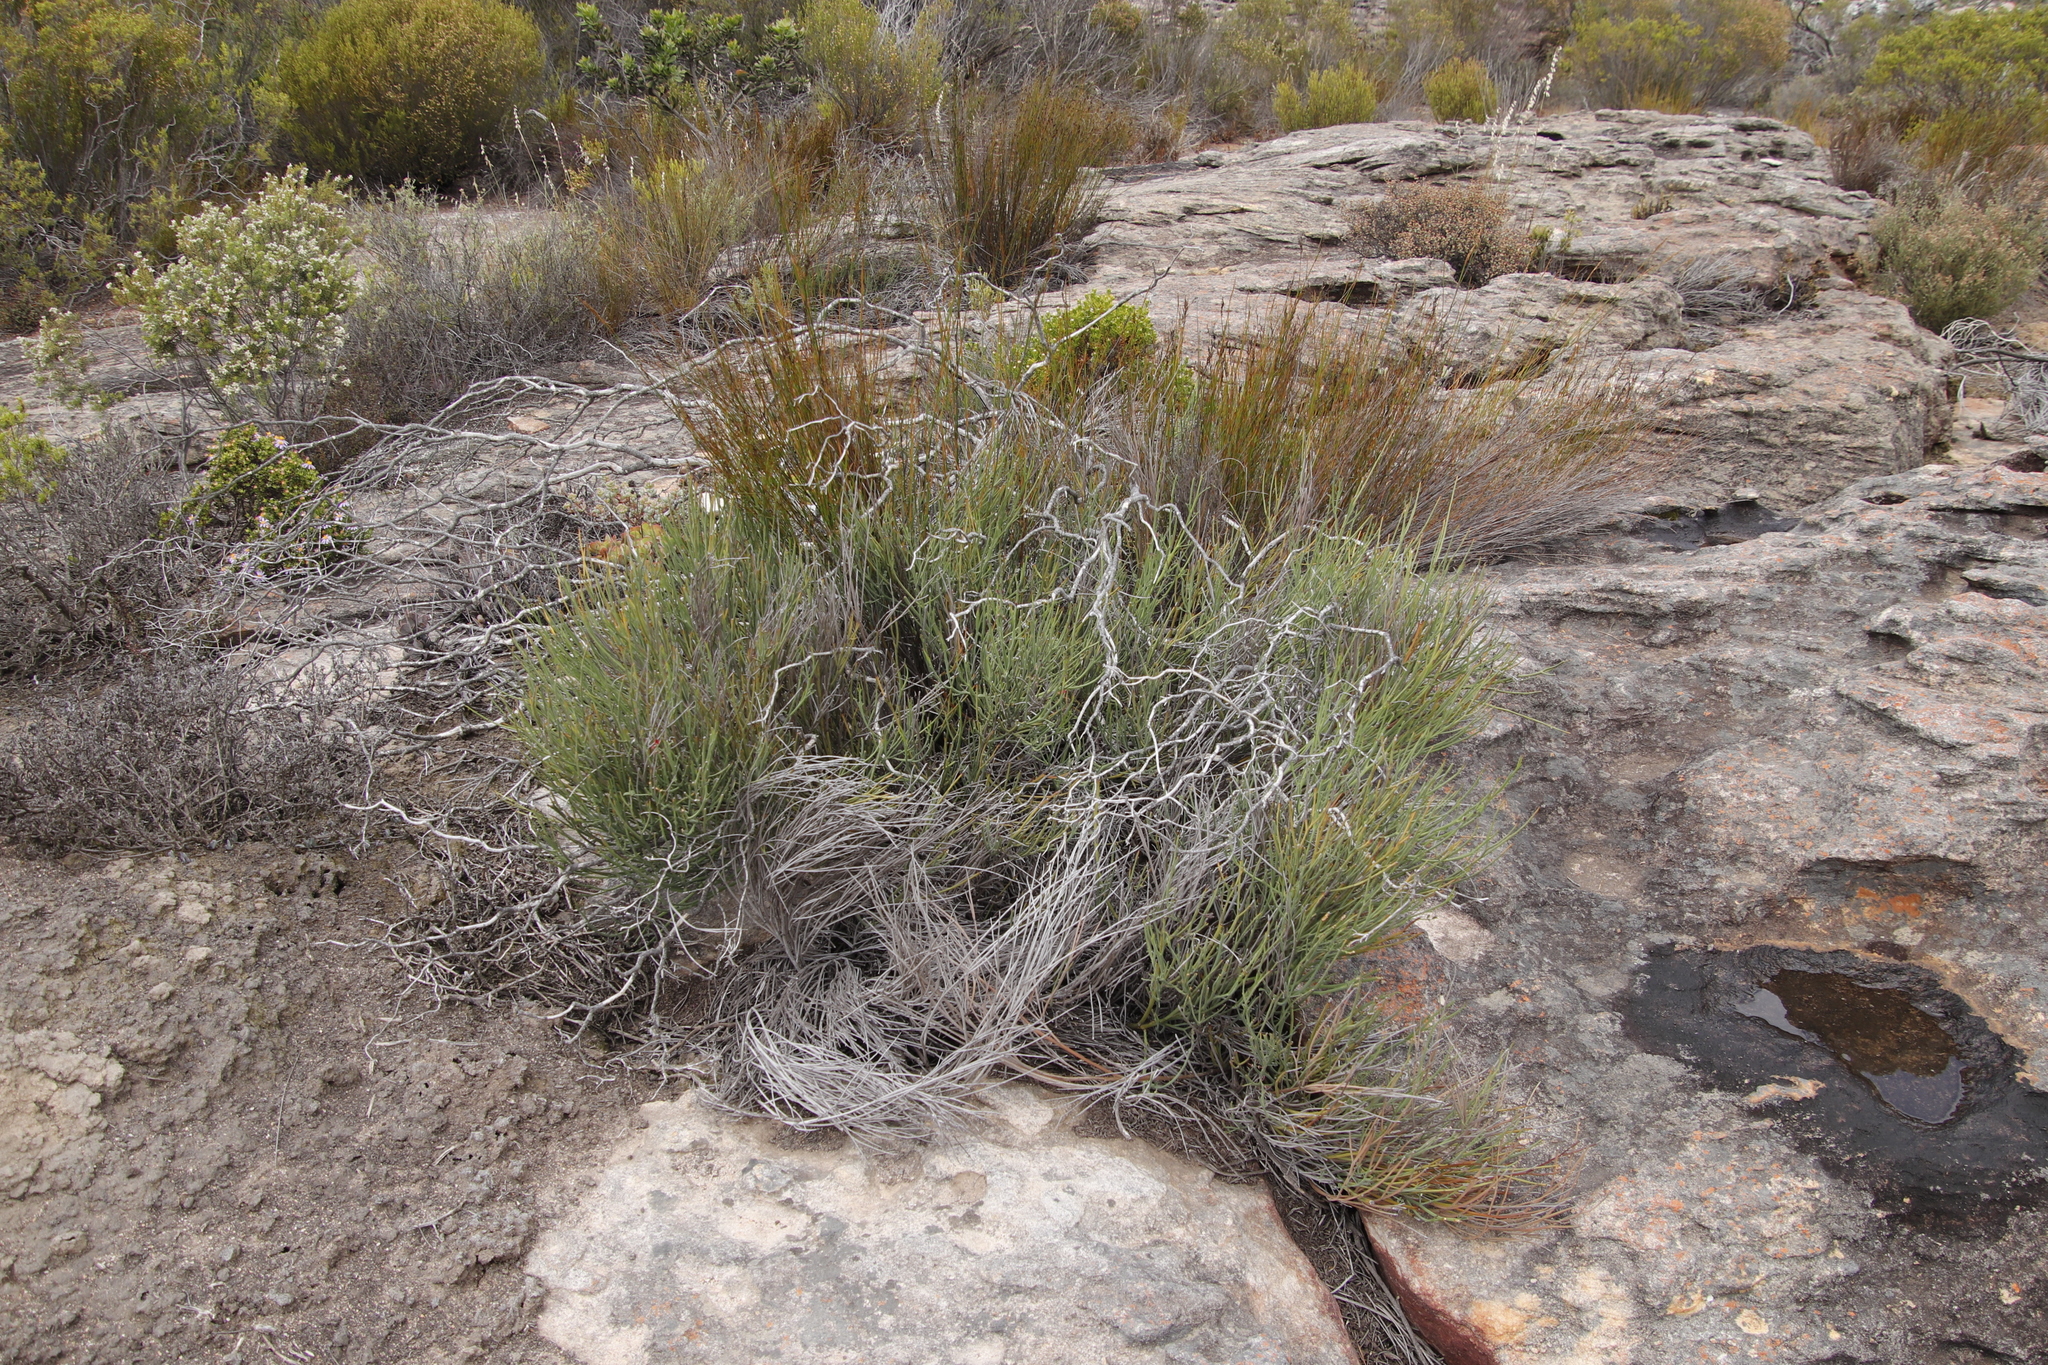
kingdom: Plantae
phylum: Tracheophyta
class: Magnoliopsida
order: Fabales
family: Fabaceae
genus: Indigofera
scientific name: Indigofera gifbergensis
